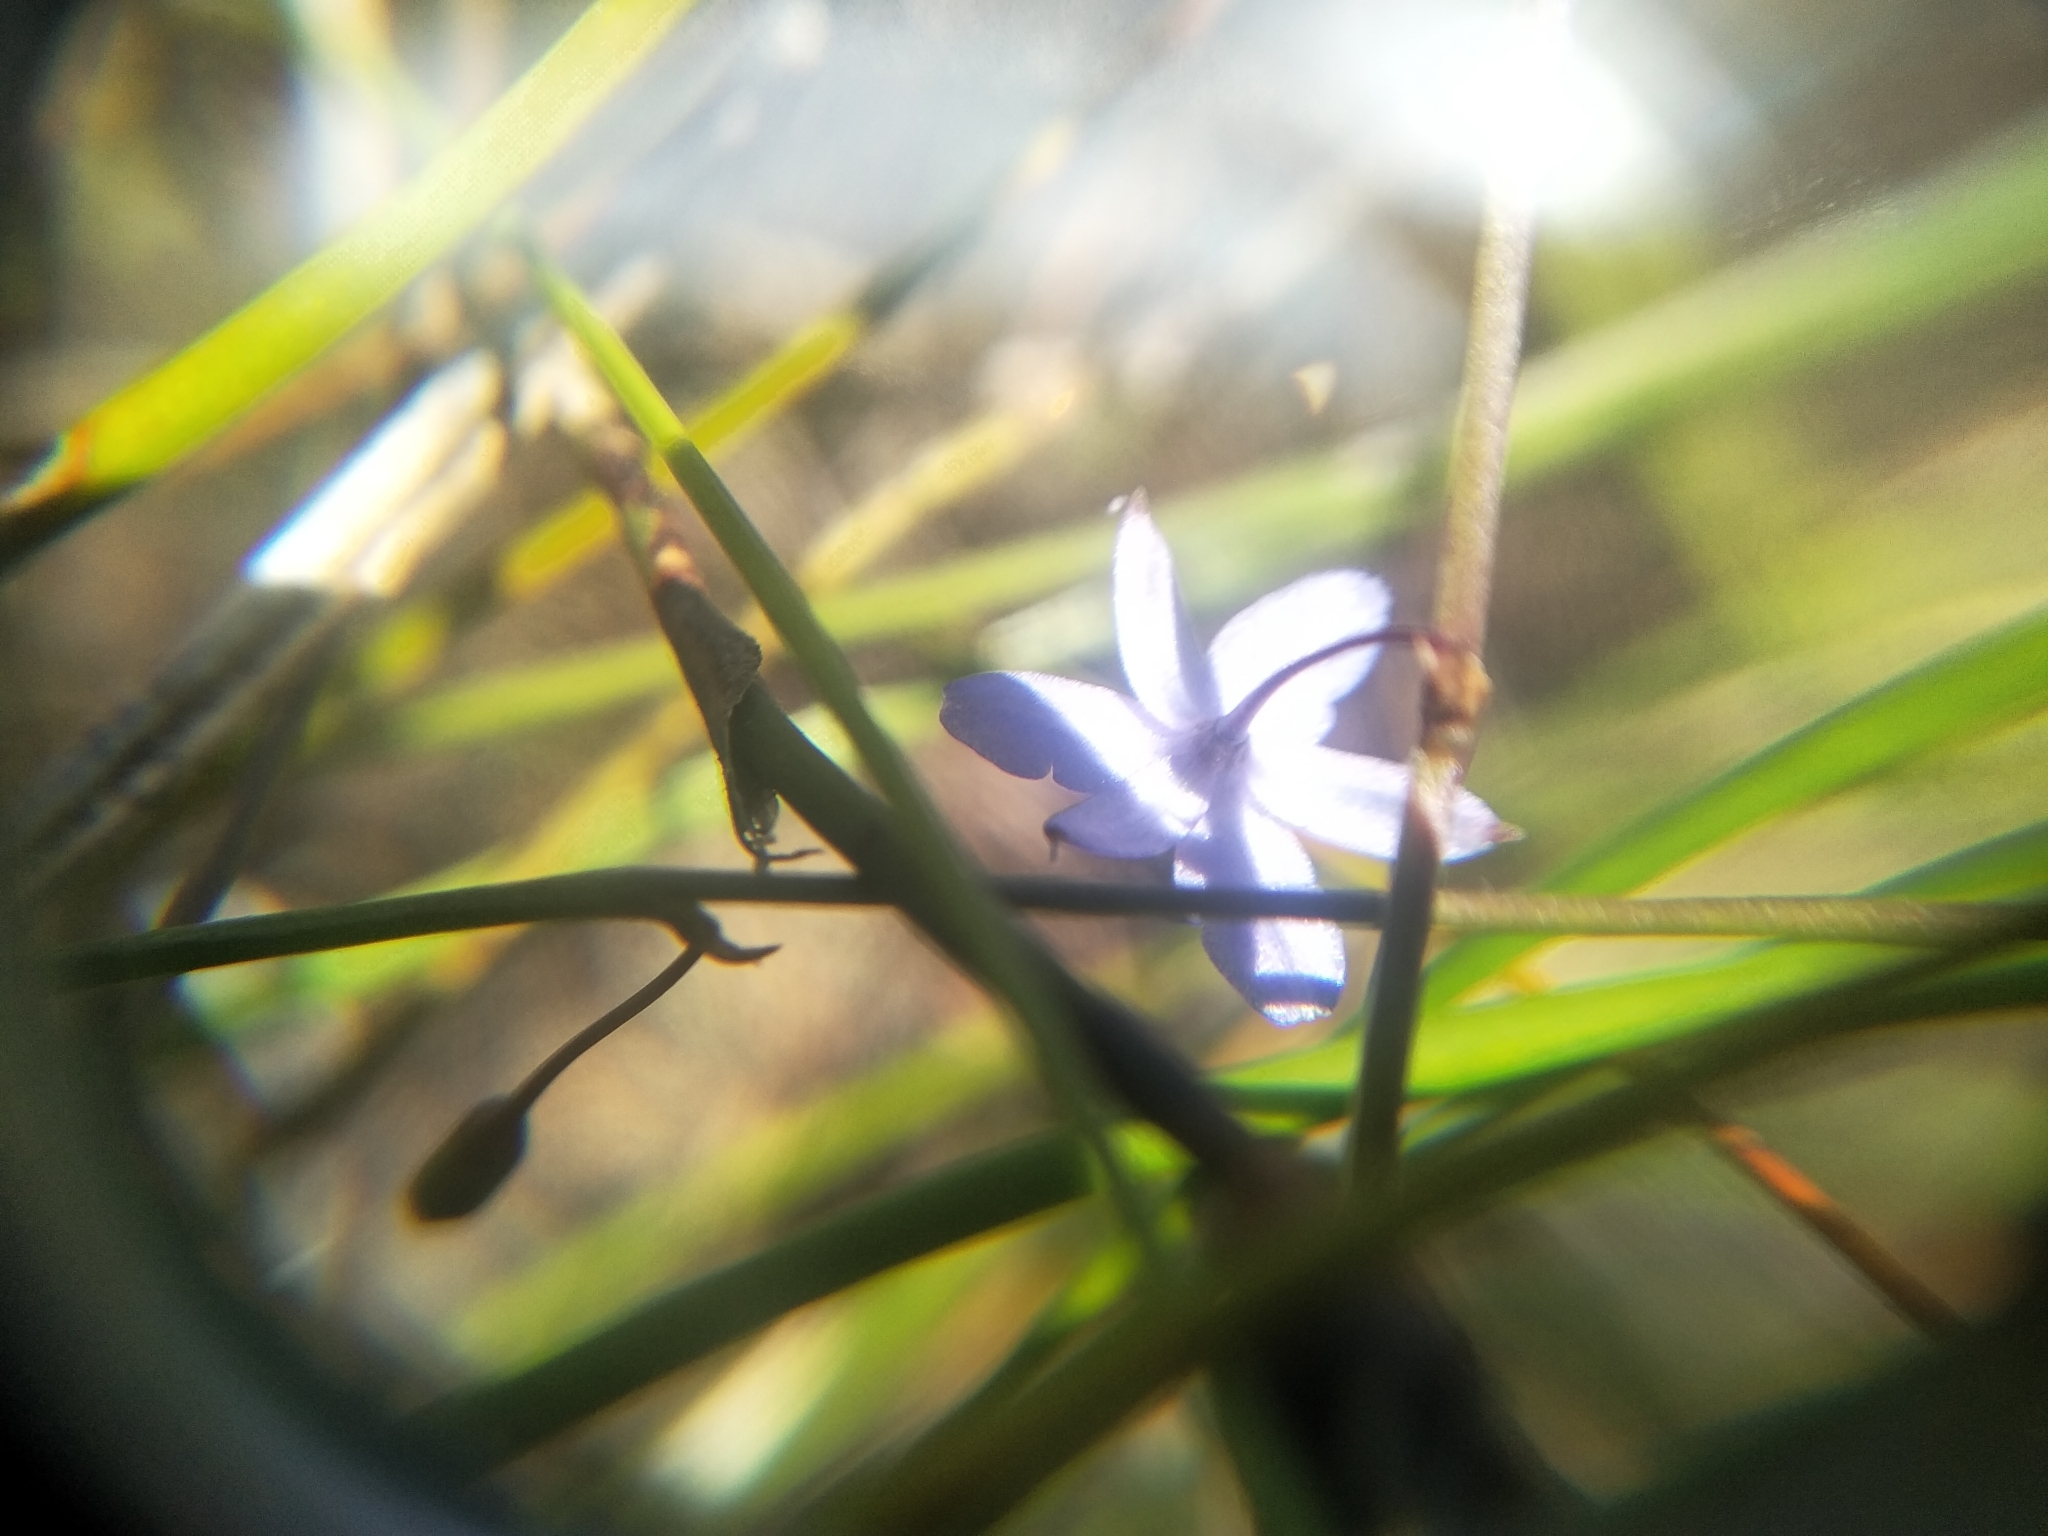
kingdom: Plantae
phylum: Tracheophyta
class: Liliopsida
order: Asparagales
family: Asphodelaceae
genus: Caesia
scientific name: Caesia contorta
